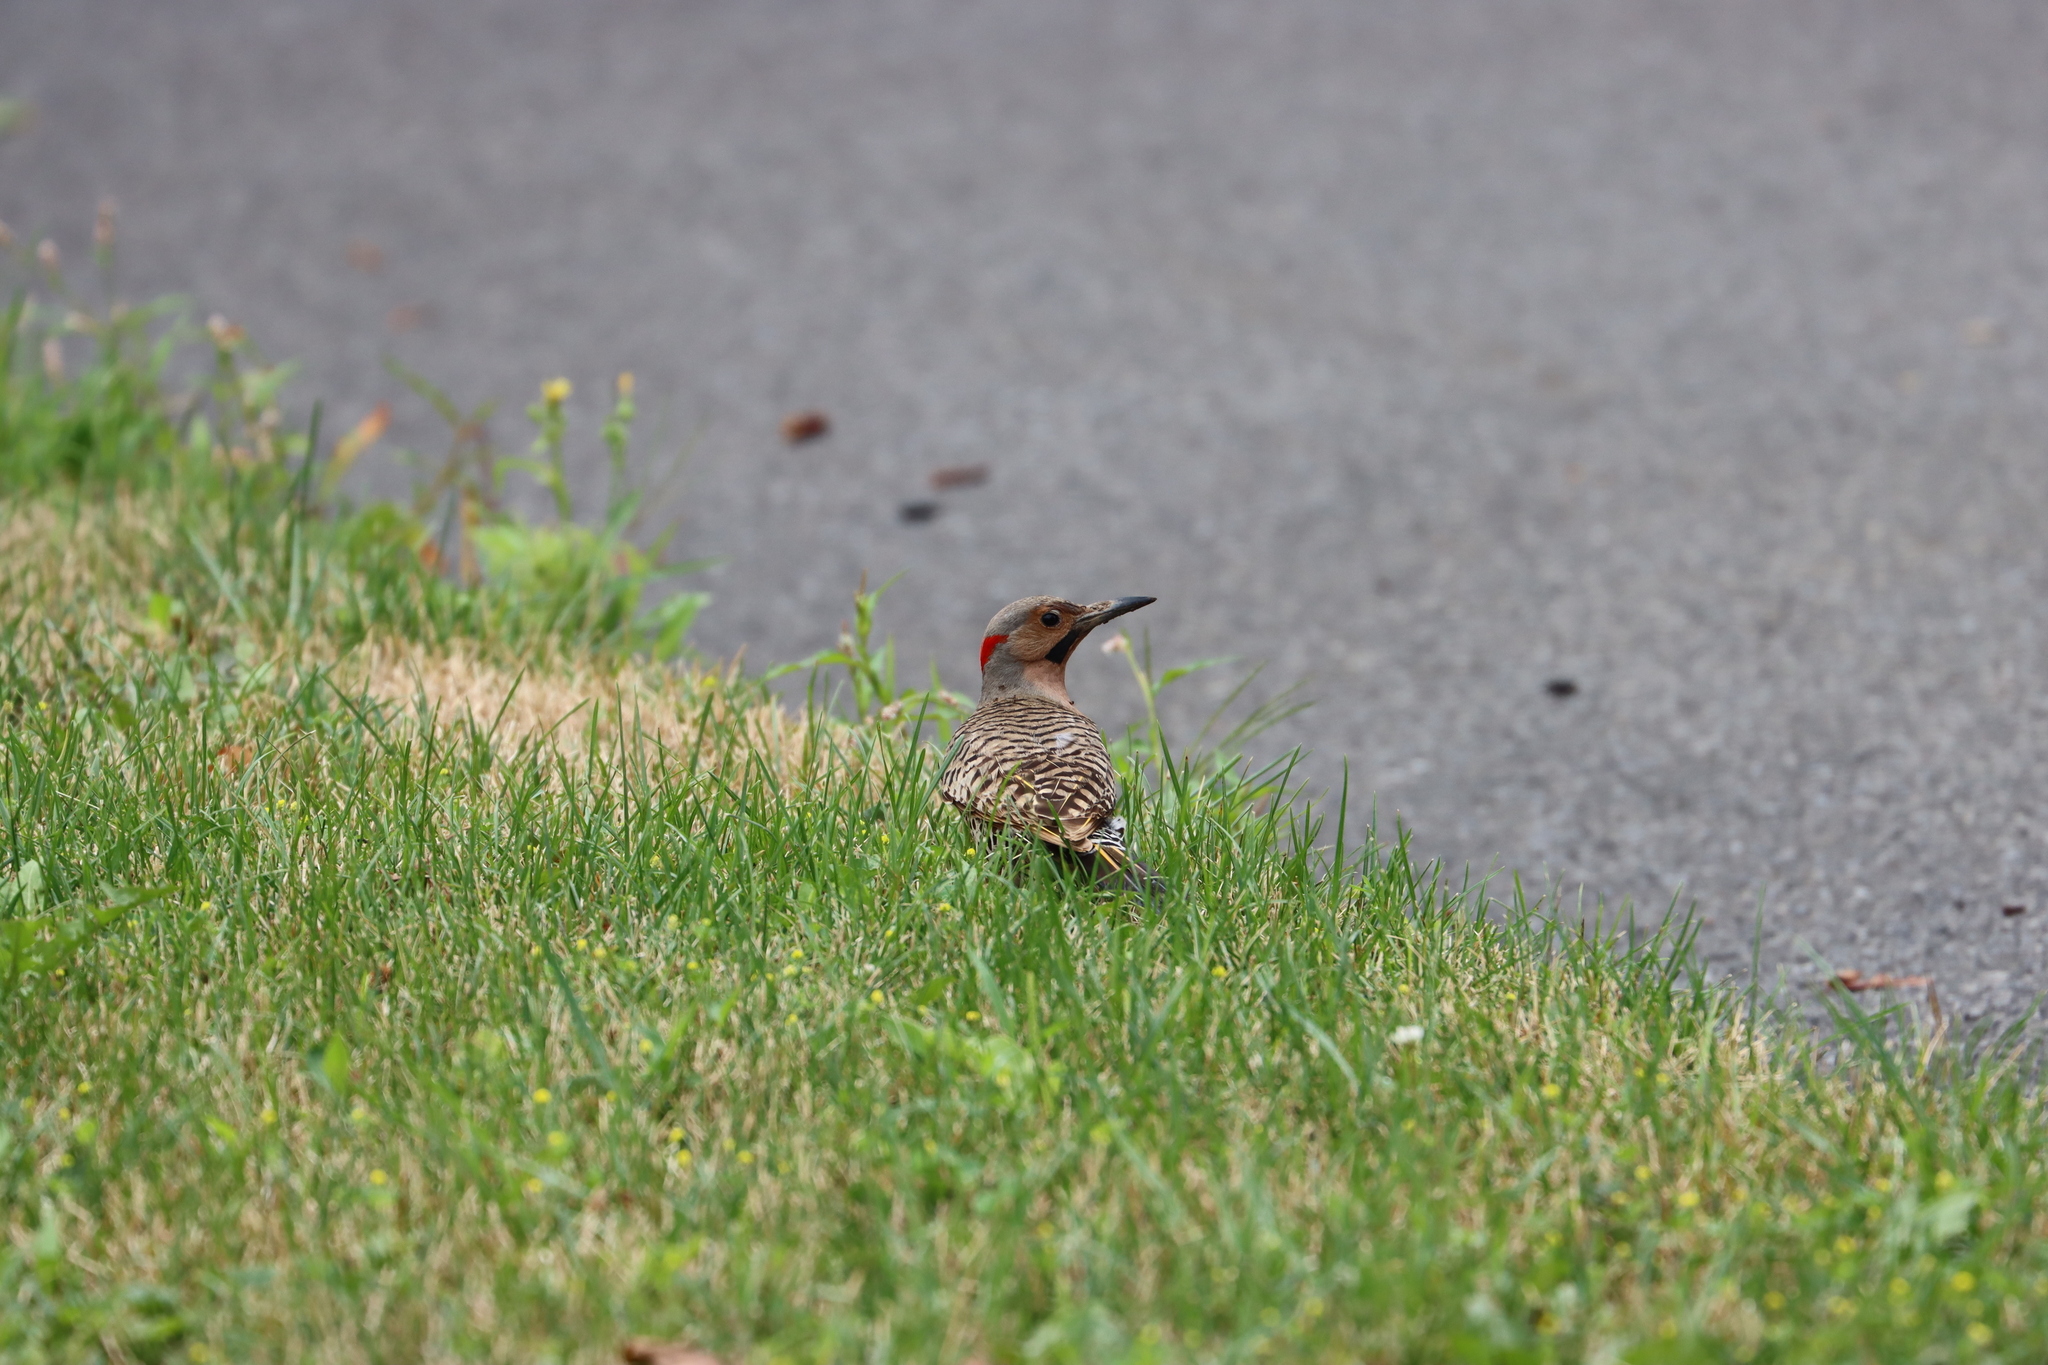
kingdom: Animalia
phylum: Chordata
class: Aves
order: Piciformes
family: Picidae
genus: Colaptes
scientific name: Colaptes auratus
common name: Northern flicker
